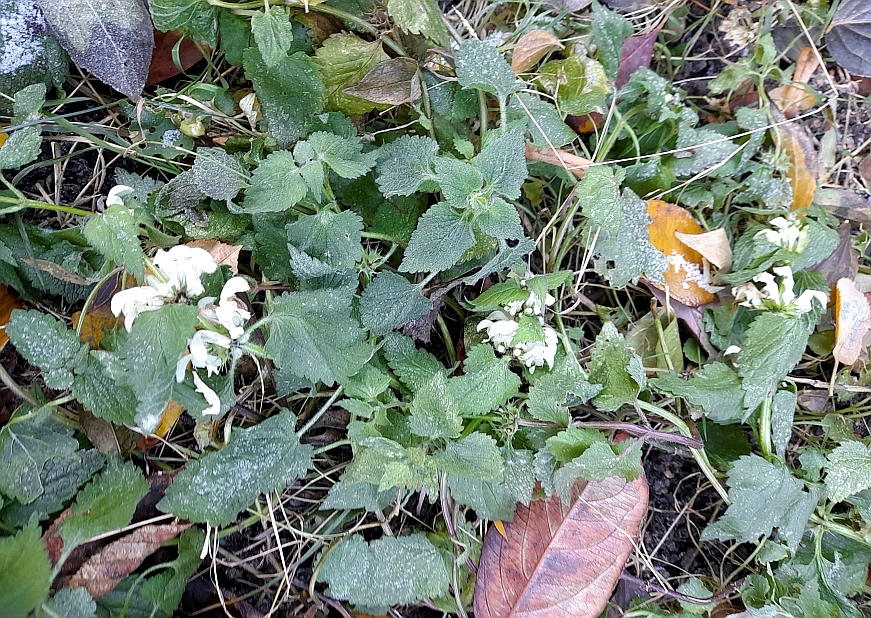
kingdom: Plantae
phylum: Tracheophyta
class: Magnoliopsida
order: Lamiales
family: Lamiaceae
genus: Lamium
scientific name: Lamium album
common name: White dead-nettle
